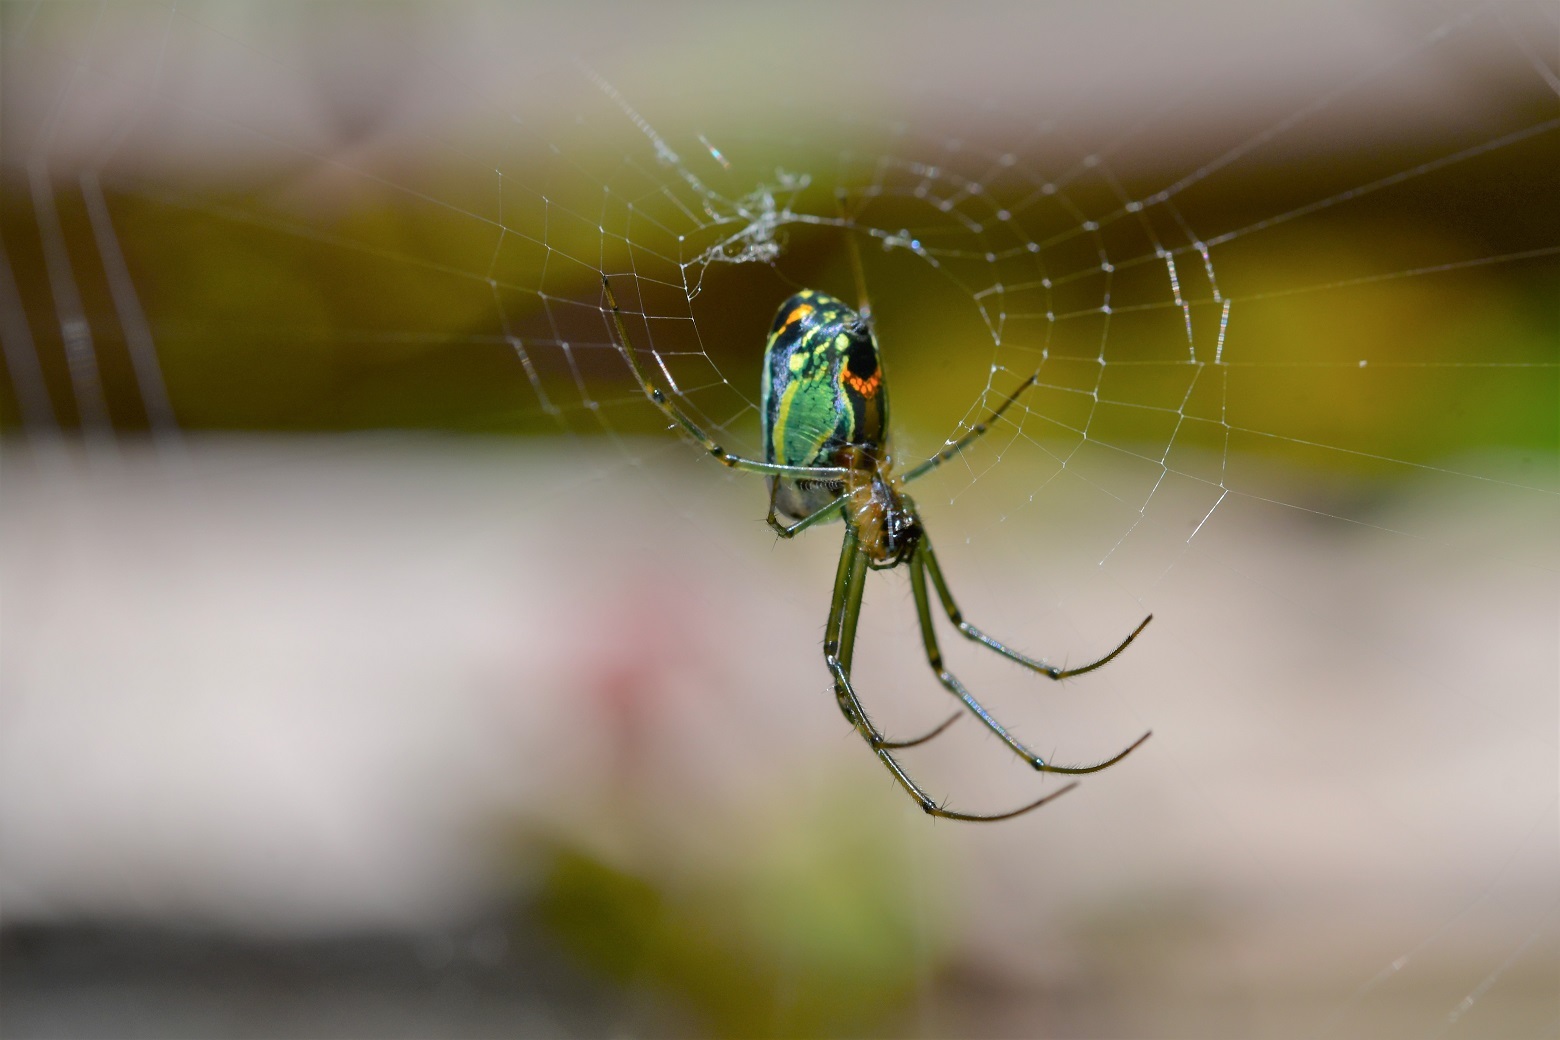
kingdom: Animalia
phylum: Arthropoda
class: Arachnida
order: Araneae
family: Tetragnathidae
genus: Leucauge
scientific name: Leucauge mariana
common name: Longjawed orb weavers
